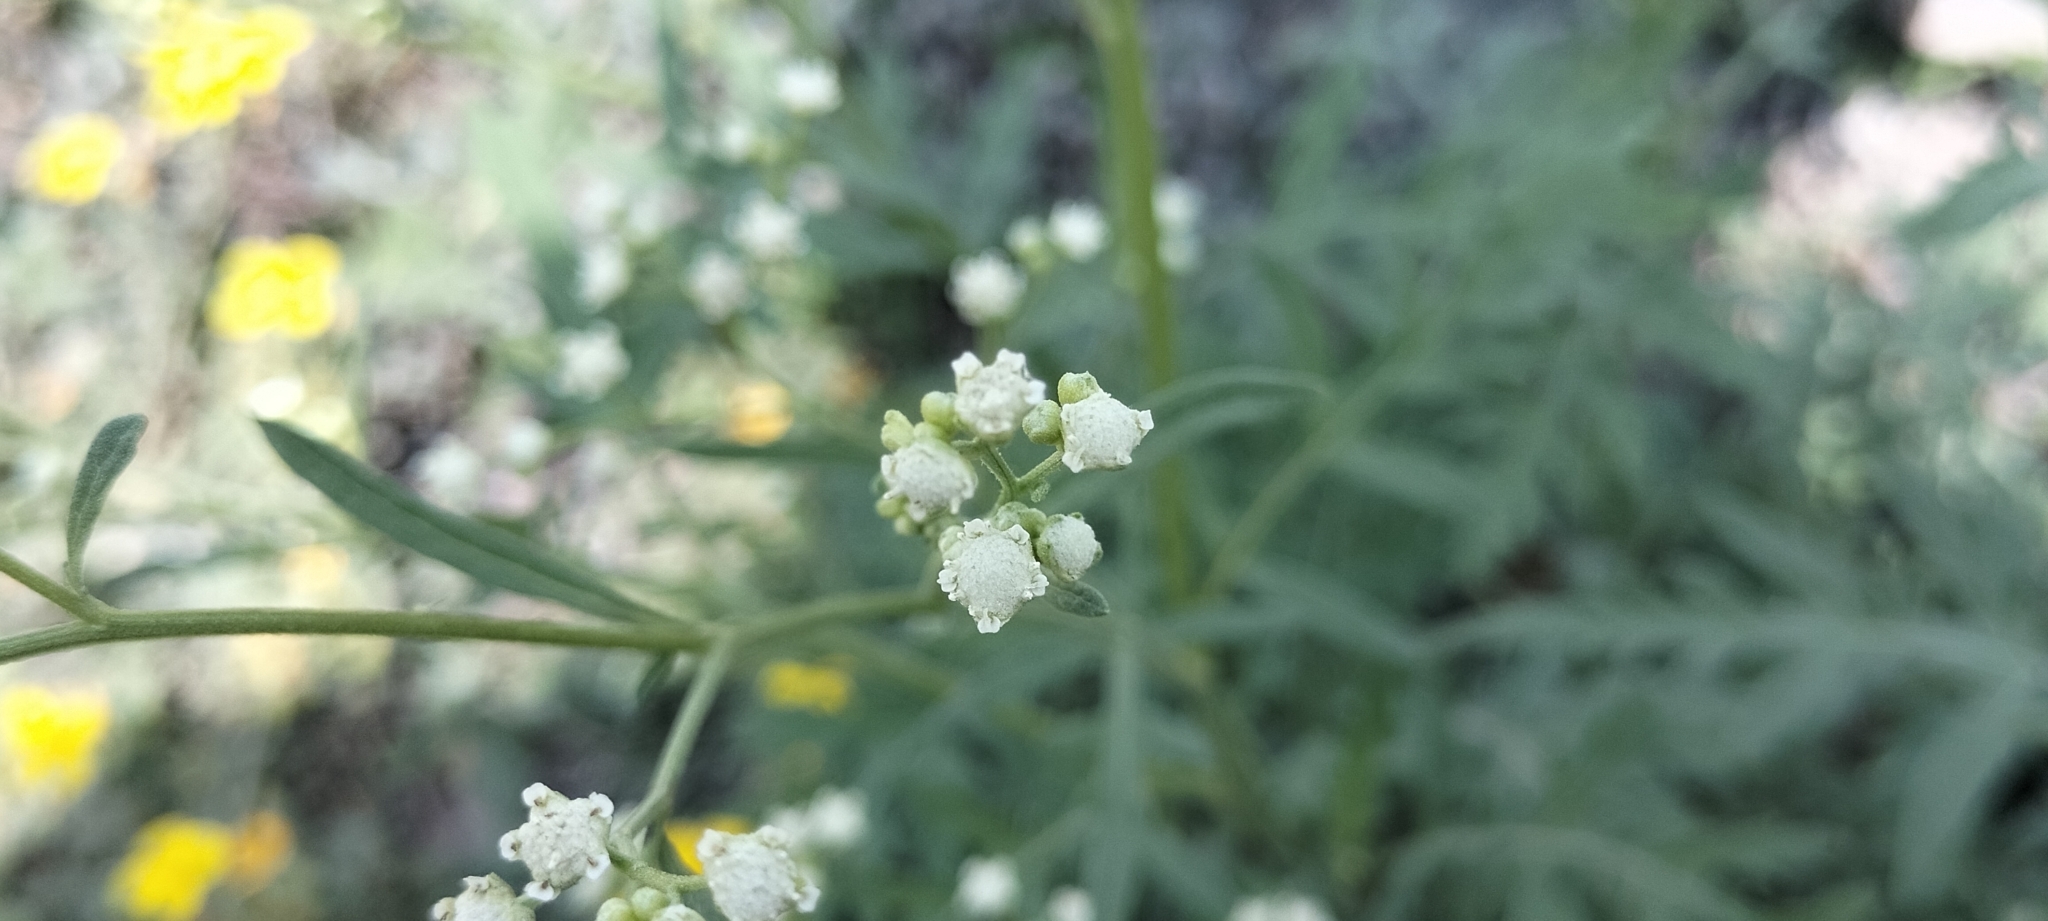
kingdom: Plantae
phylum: Tracheophyta
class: Magnoliopsida
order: Asterales
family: Asteraceae
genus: Parthenium
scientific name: Parthenium bipinnatifidum
